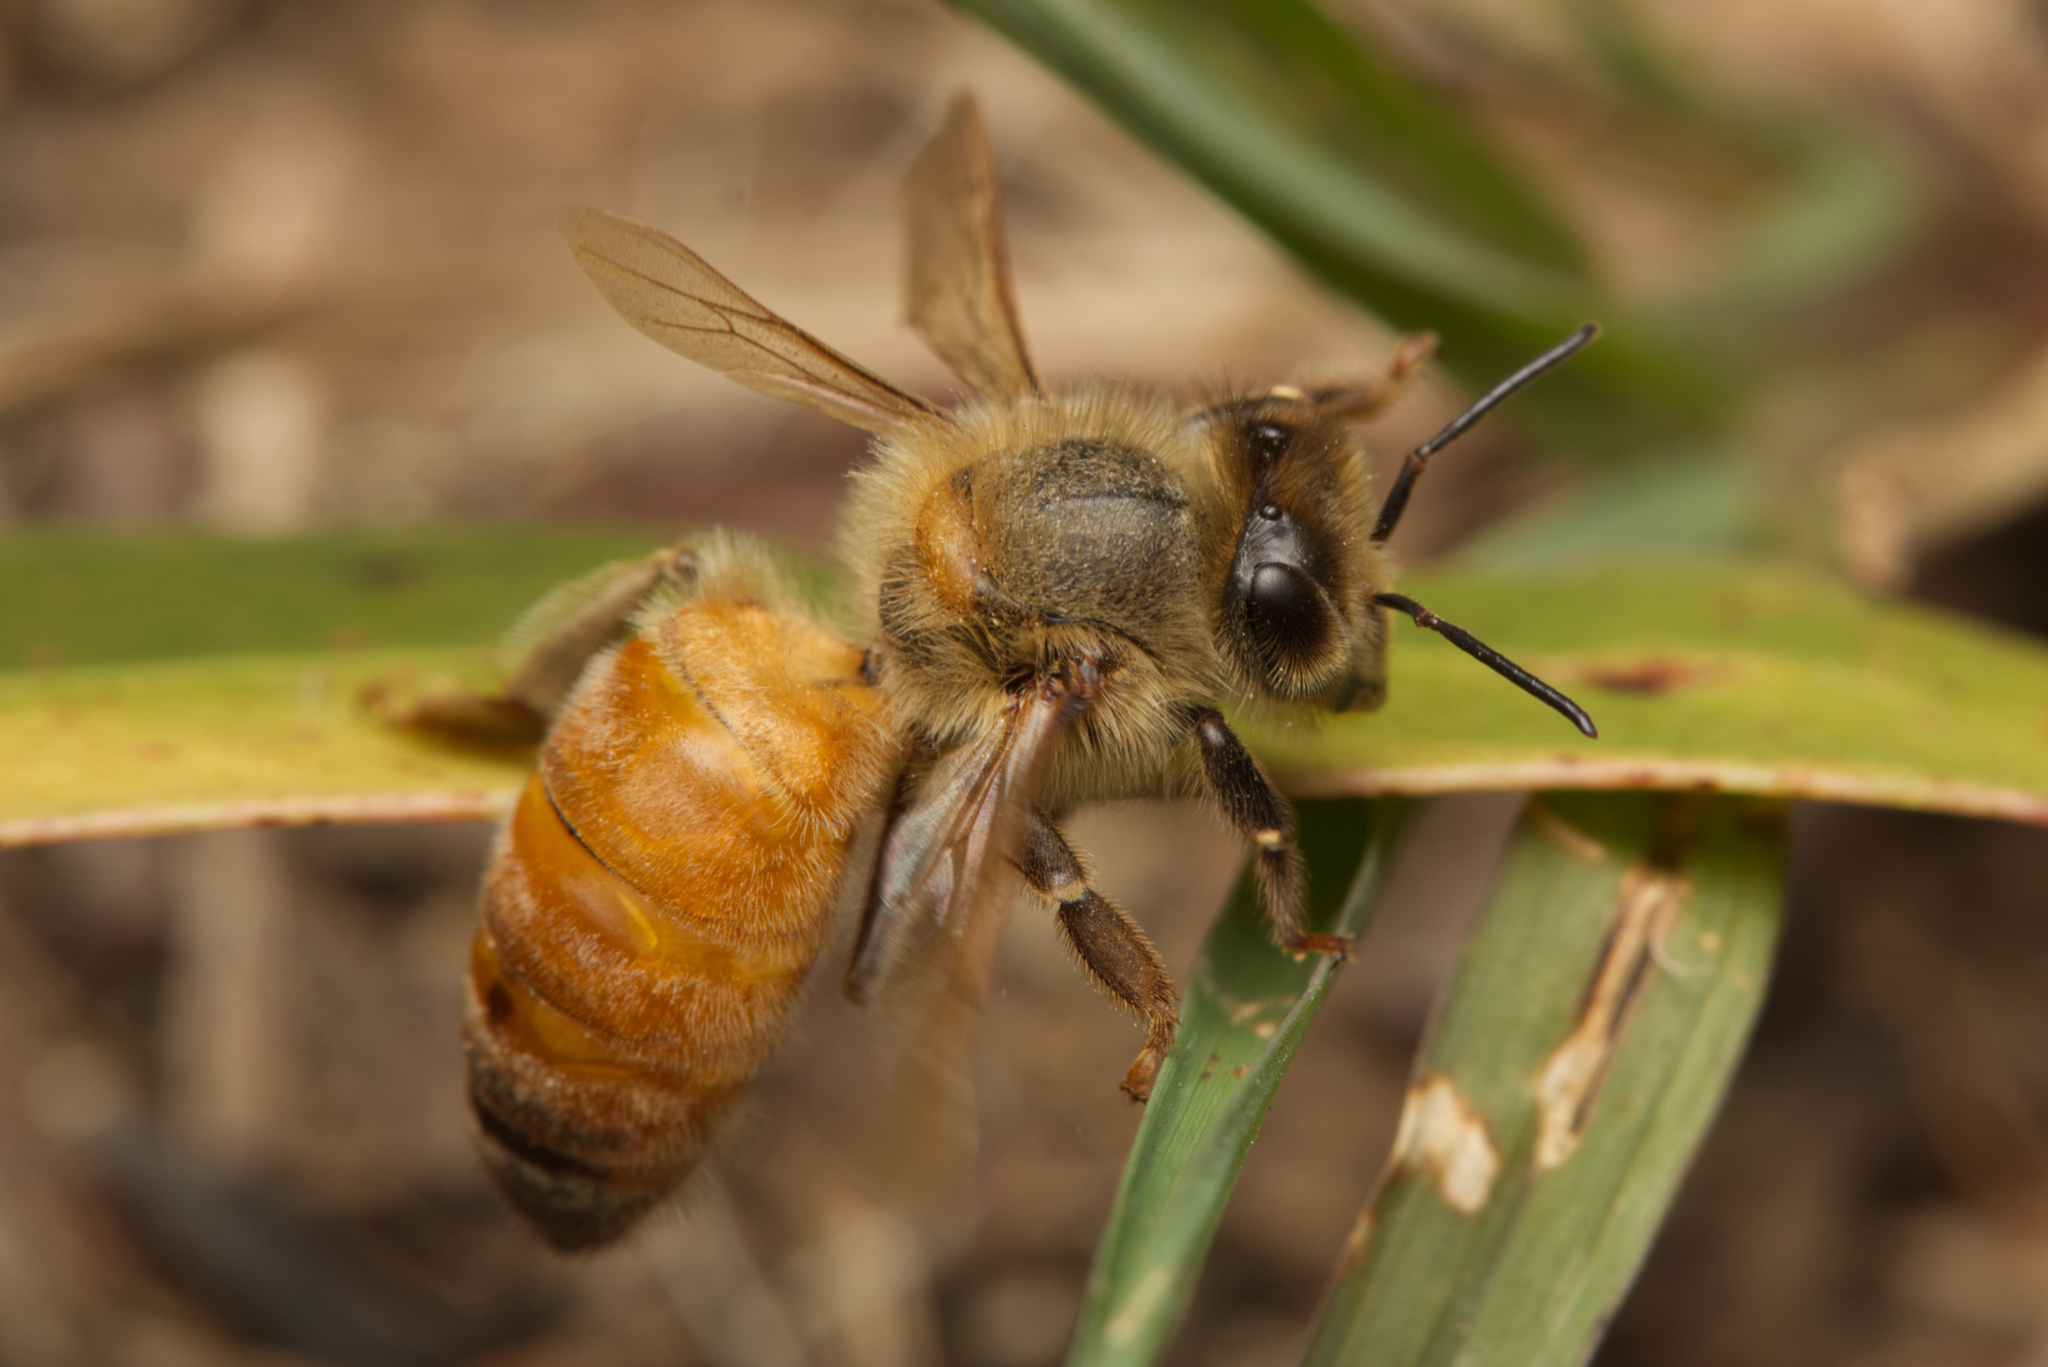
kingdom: Animalia
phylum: Arthropoda
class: Insecta
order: Hymenoptera
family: Apidae
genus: Apis
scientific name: Apis mellifera
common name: Honey bee
